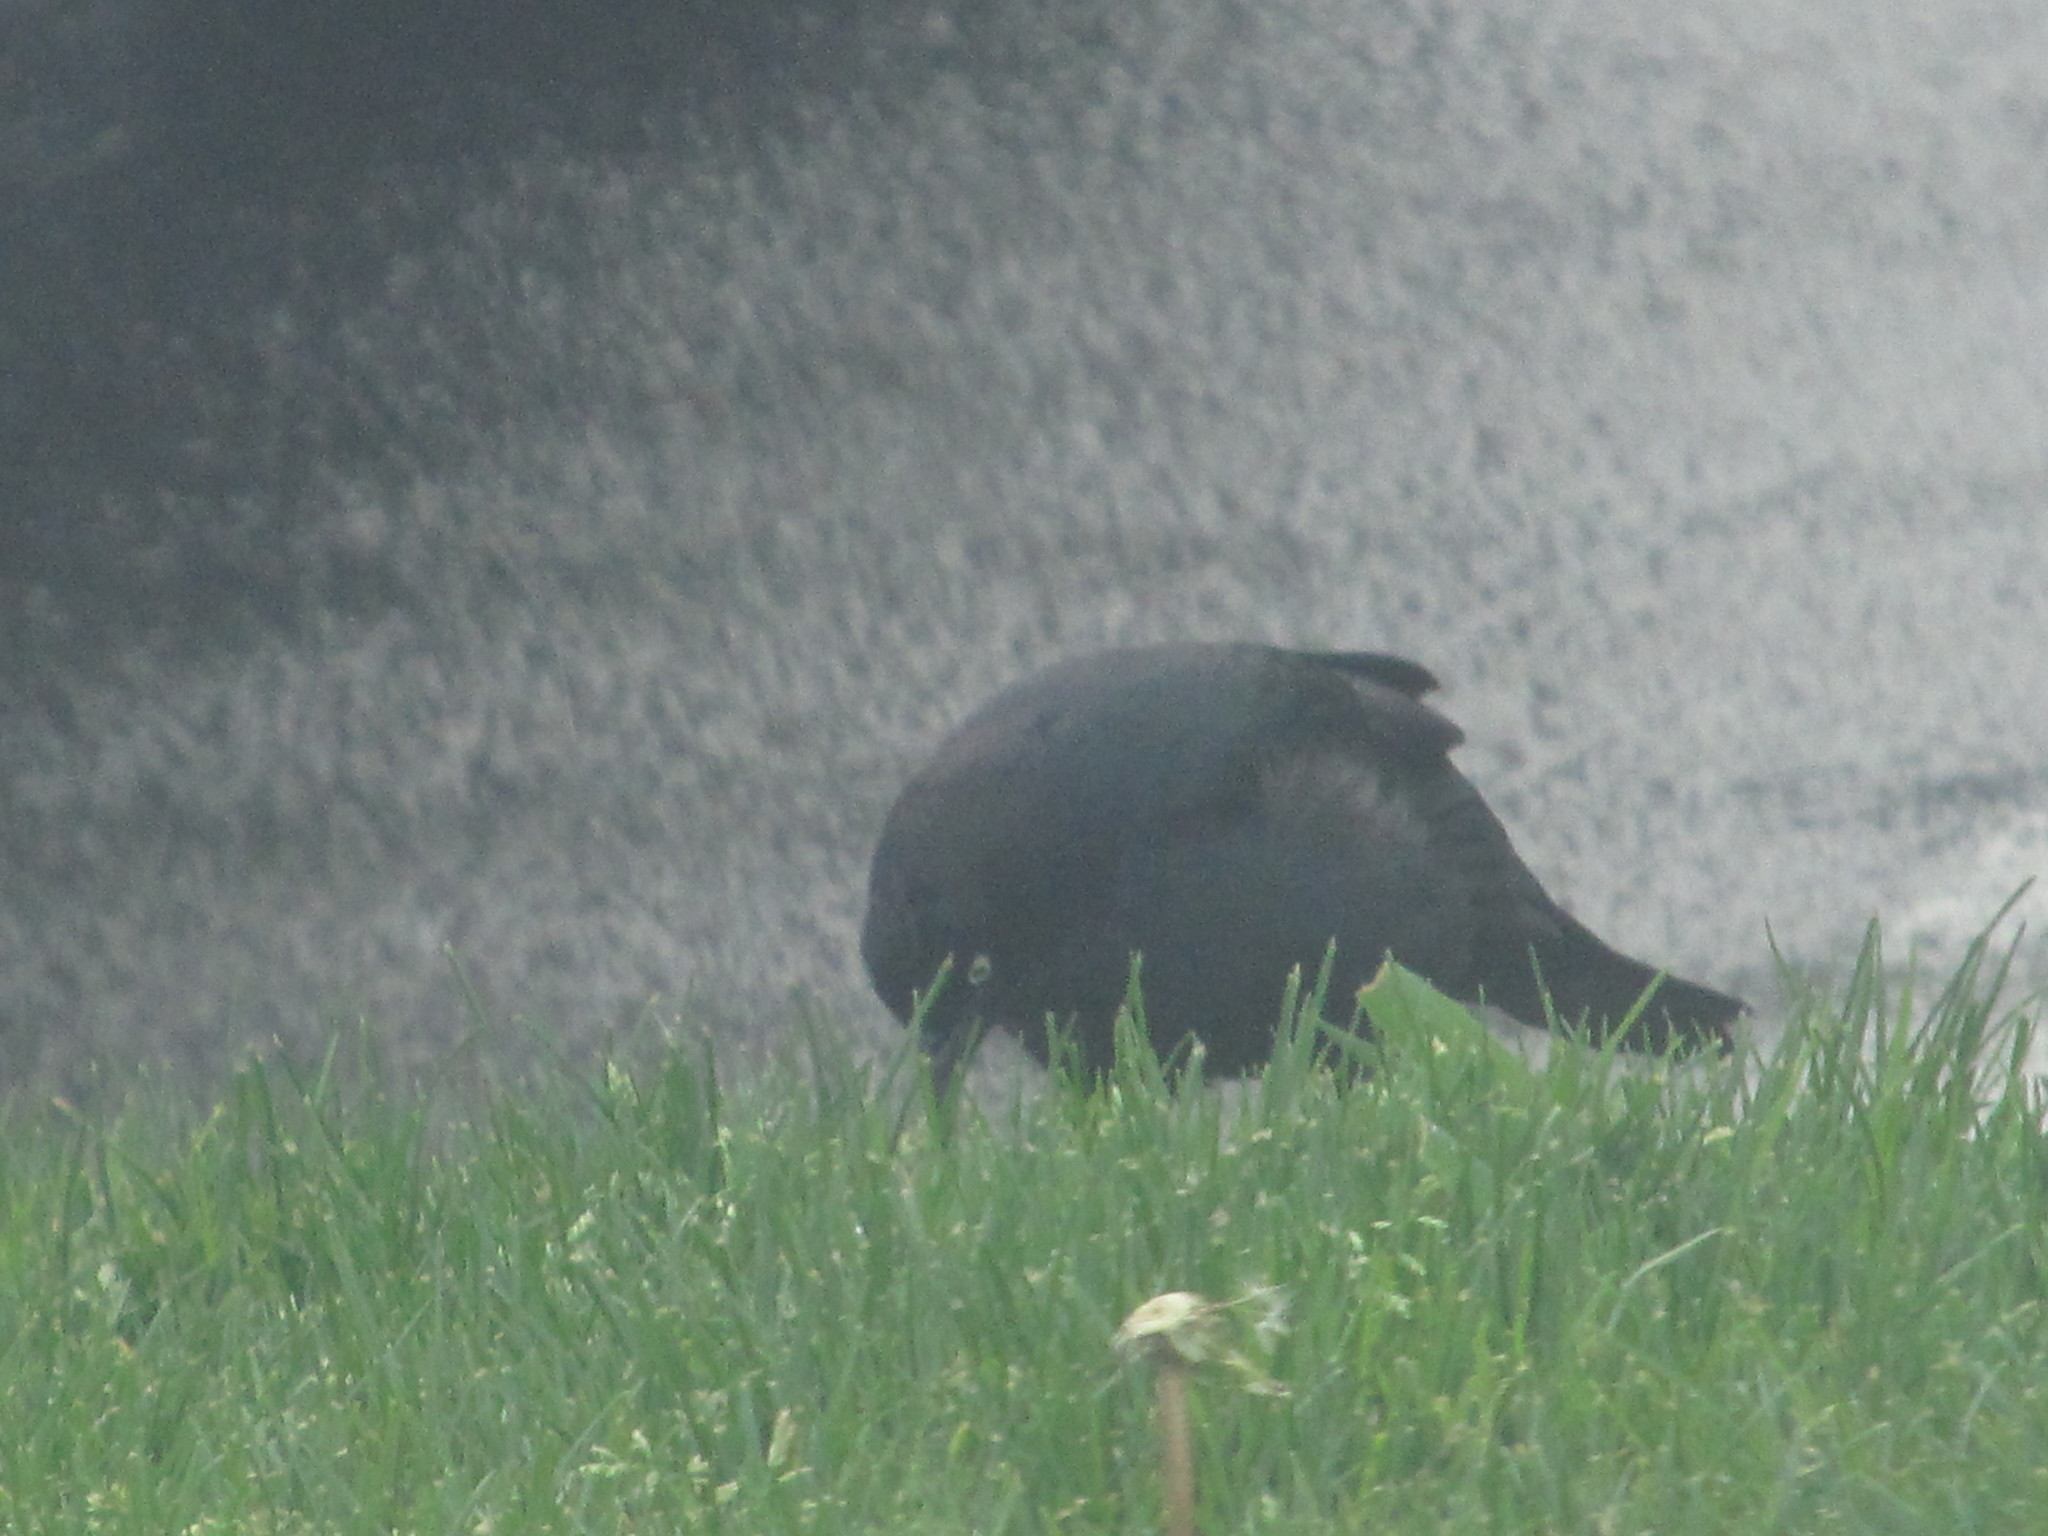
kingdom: Animalia
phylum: Chordata
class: Aves
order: Passeriformes
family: Icteridae
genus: Euphagus
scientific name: Euphagus cyanocephalus
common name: Brewer's blackbird
